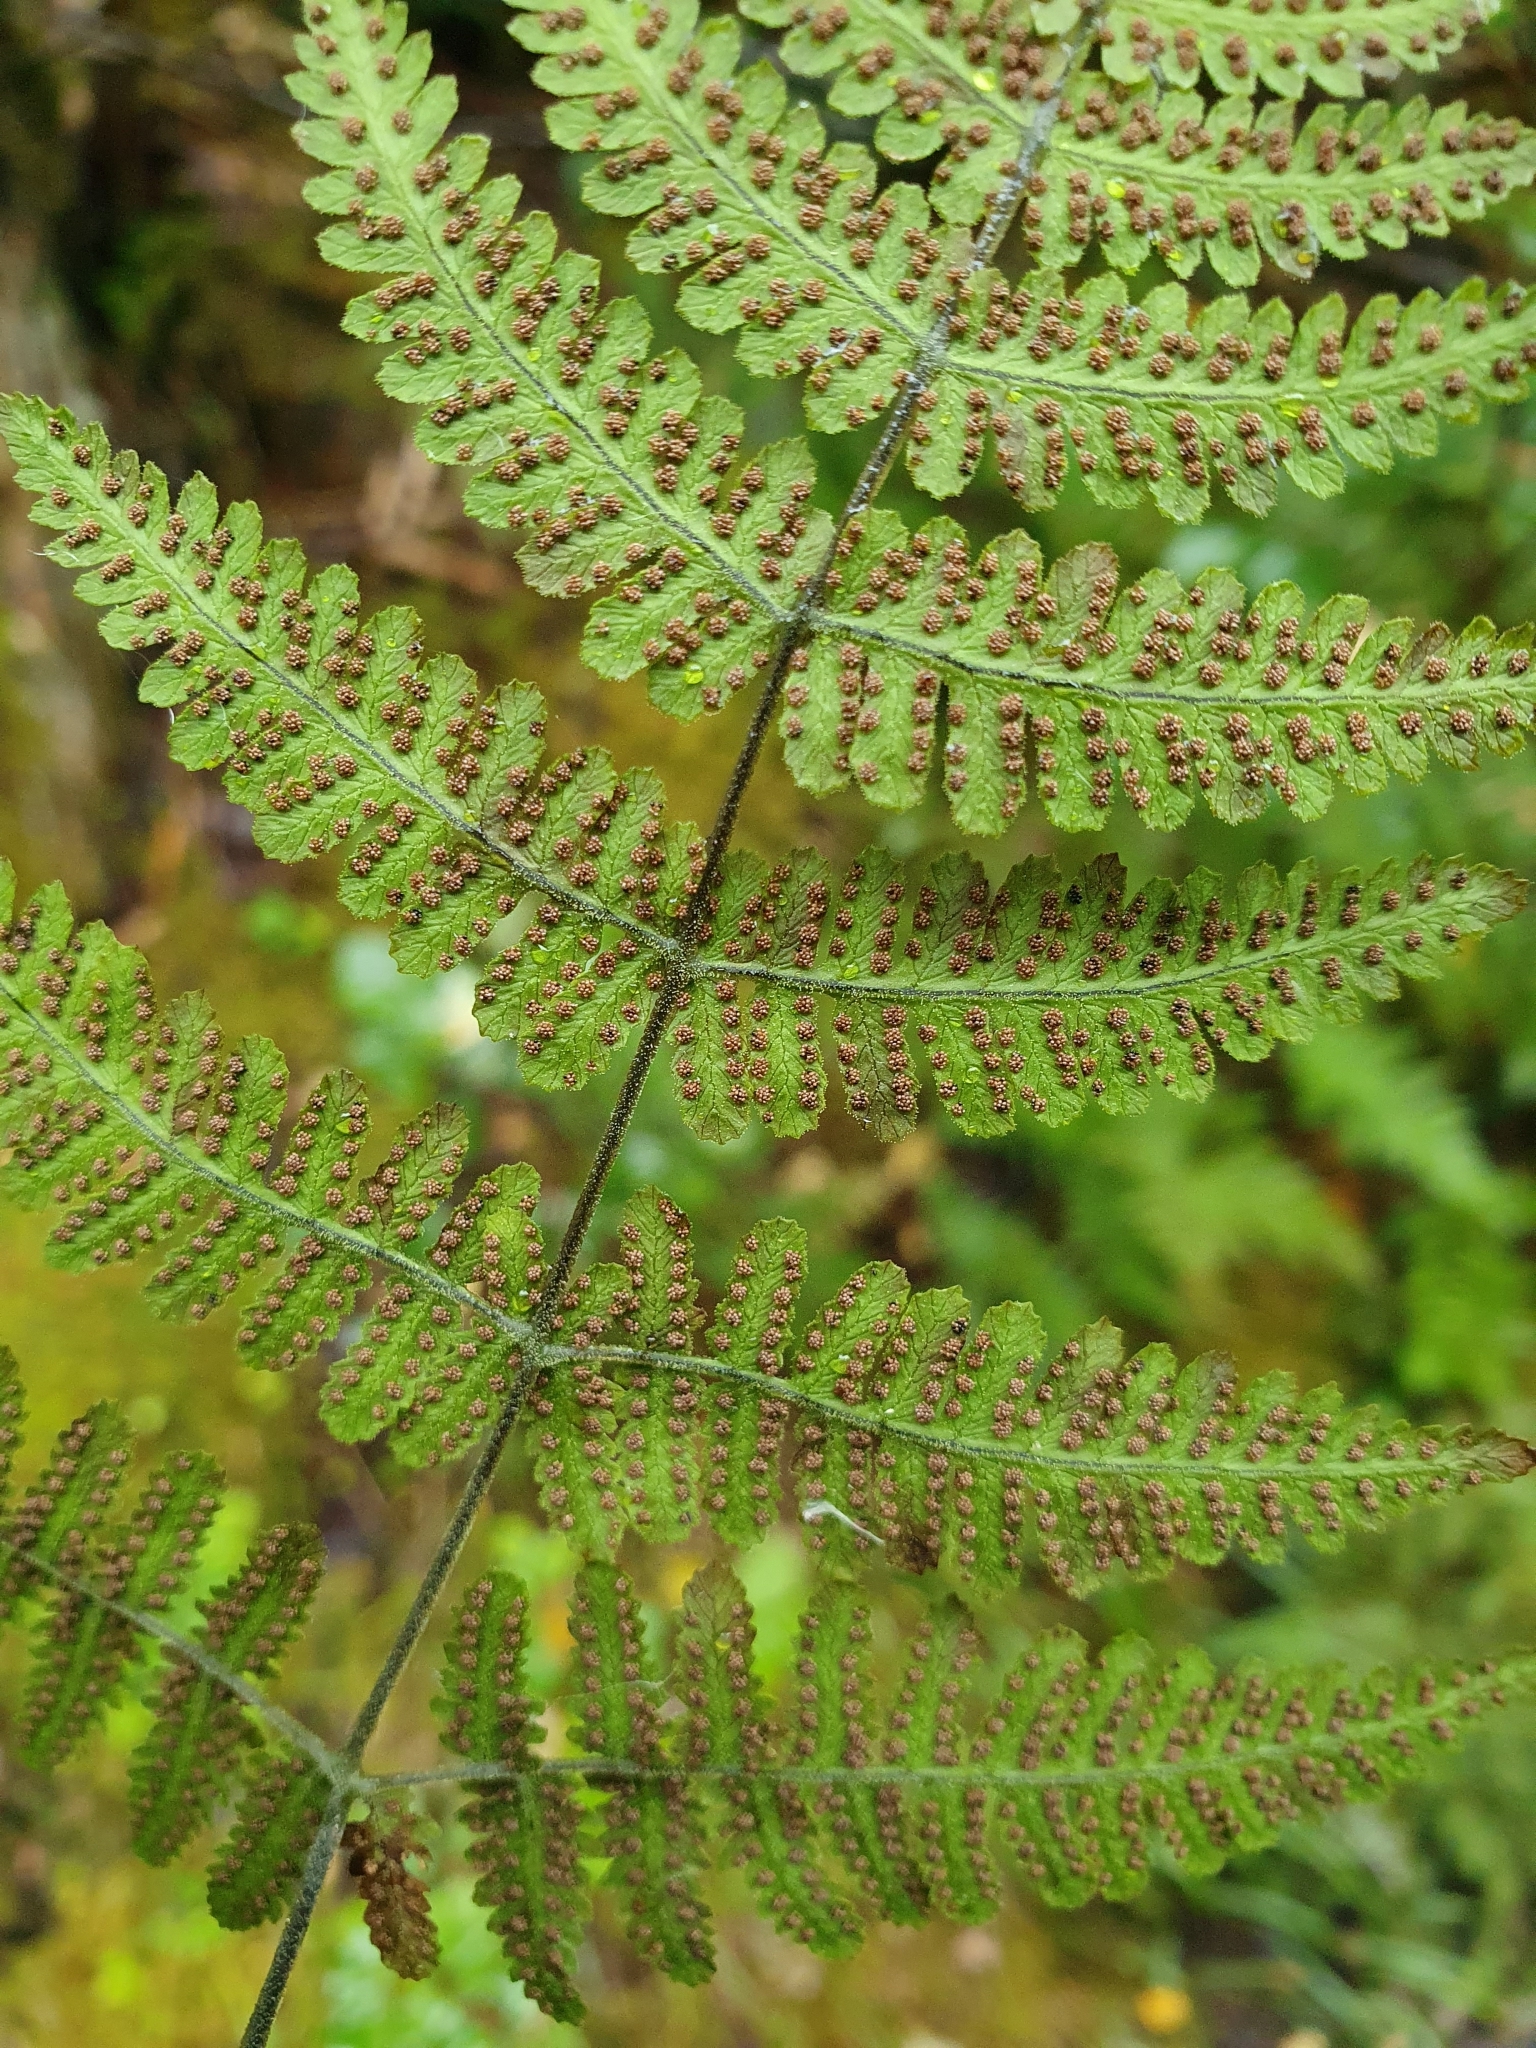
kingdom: Plantae
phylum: Tracheophyta
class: Polypodiopsida
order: Polypodiales
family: Cystopteridaceae
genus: Gymnocarpium
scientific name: Gymnocarpium robertianum
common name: Limestone fern
